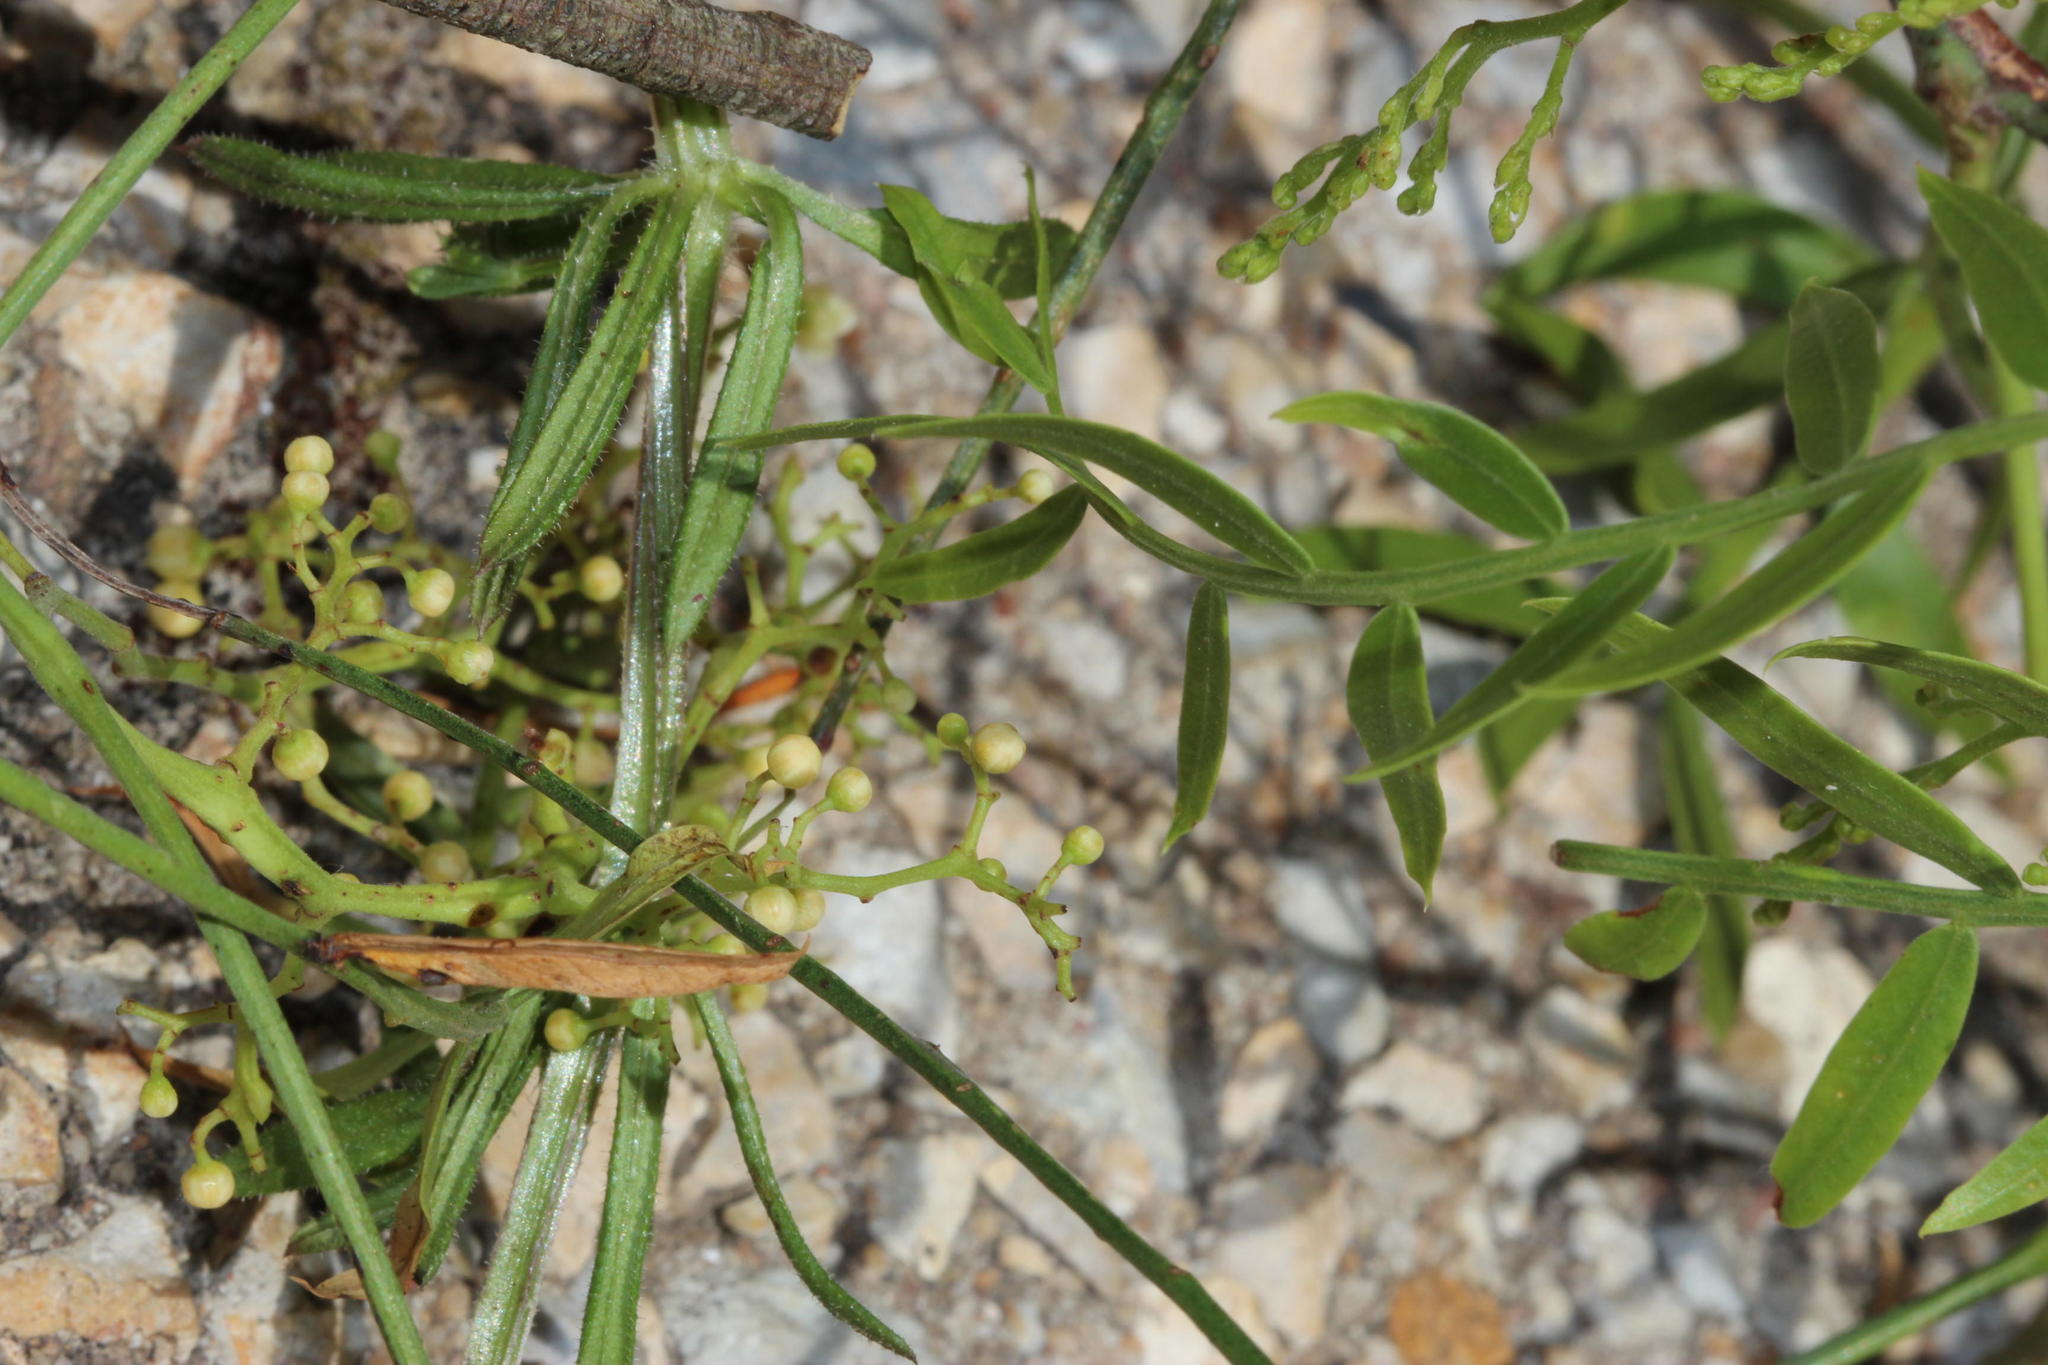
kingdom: Plantae
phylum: Tracheophyta
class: Magnoliopsida
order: Sapindales
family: Anacardiaceae
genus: Schinus
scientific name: Schinus molle
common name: Peruvian peppertree
